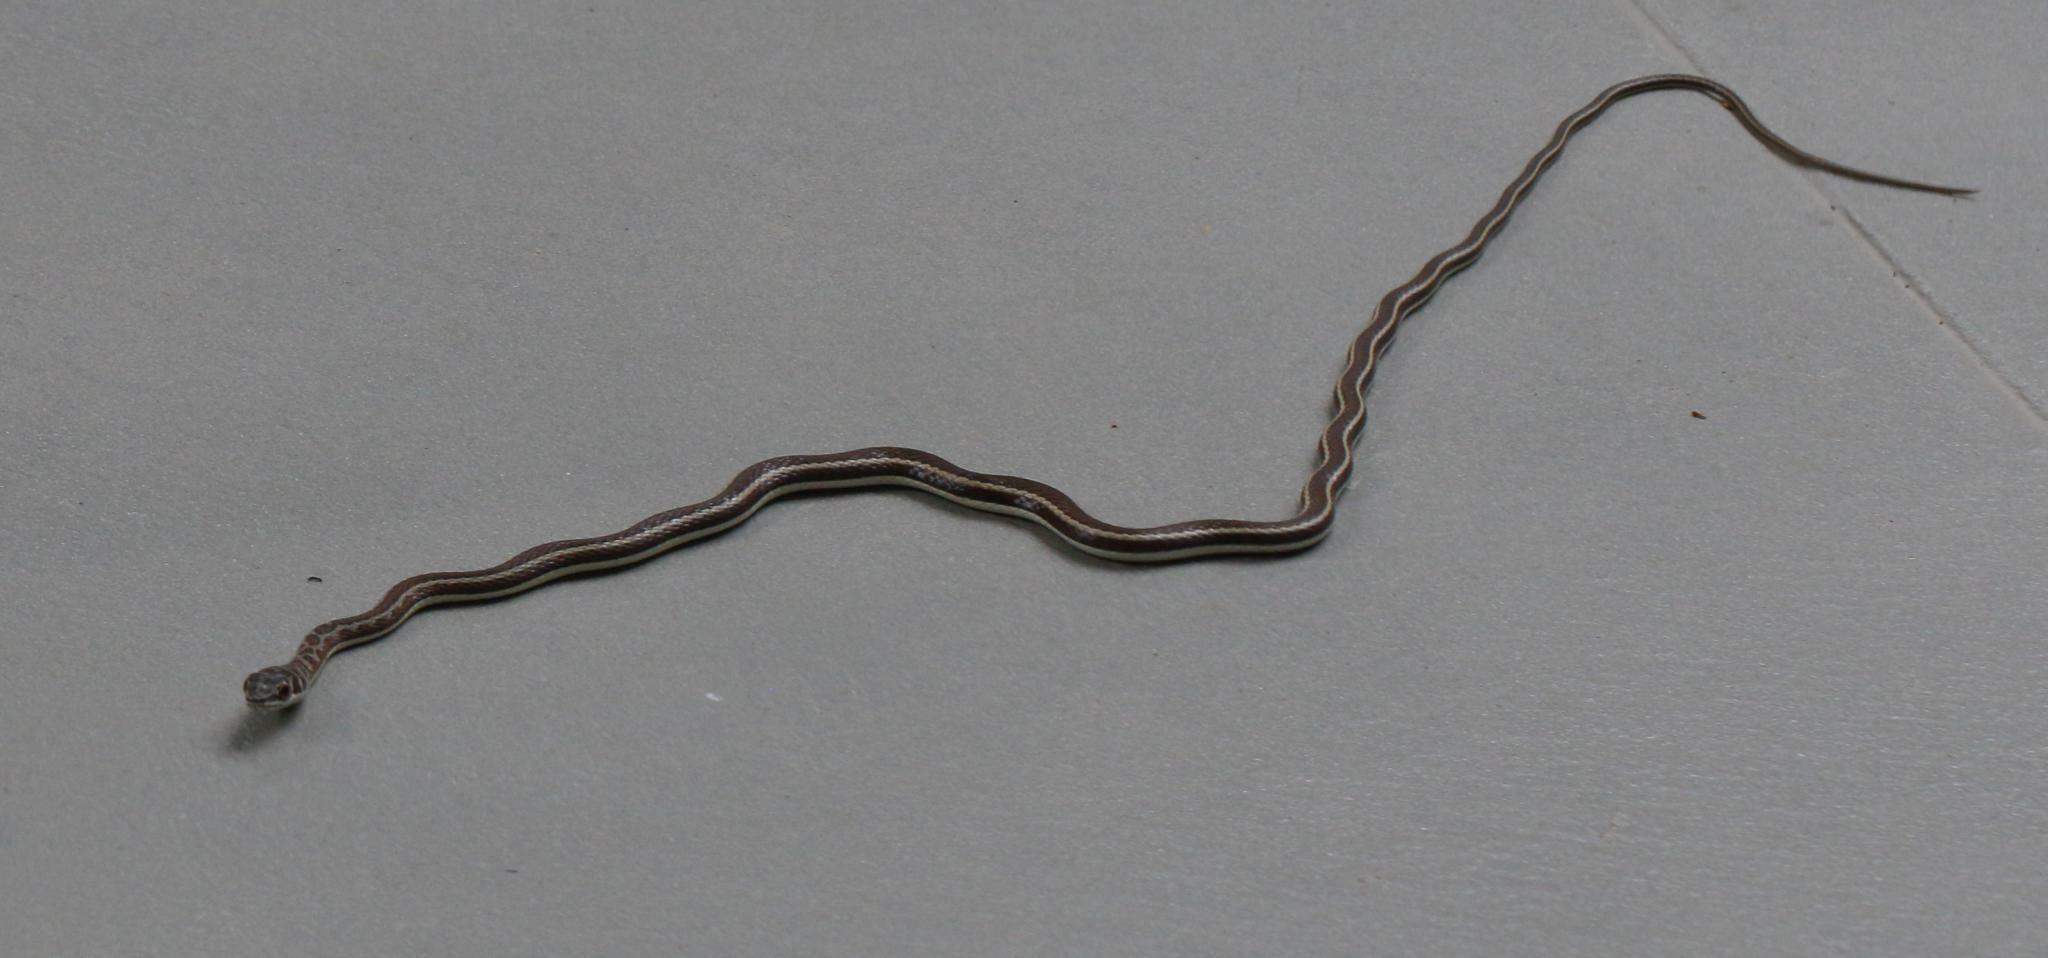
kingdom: Animalia
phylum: Chordata
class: Squamata
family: Psammophiidae
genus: Psammophis
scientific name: Psammophis subtaeniatus
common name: Stripe-bellied sand snake
